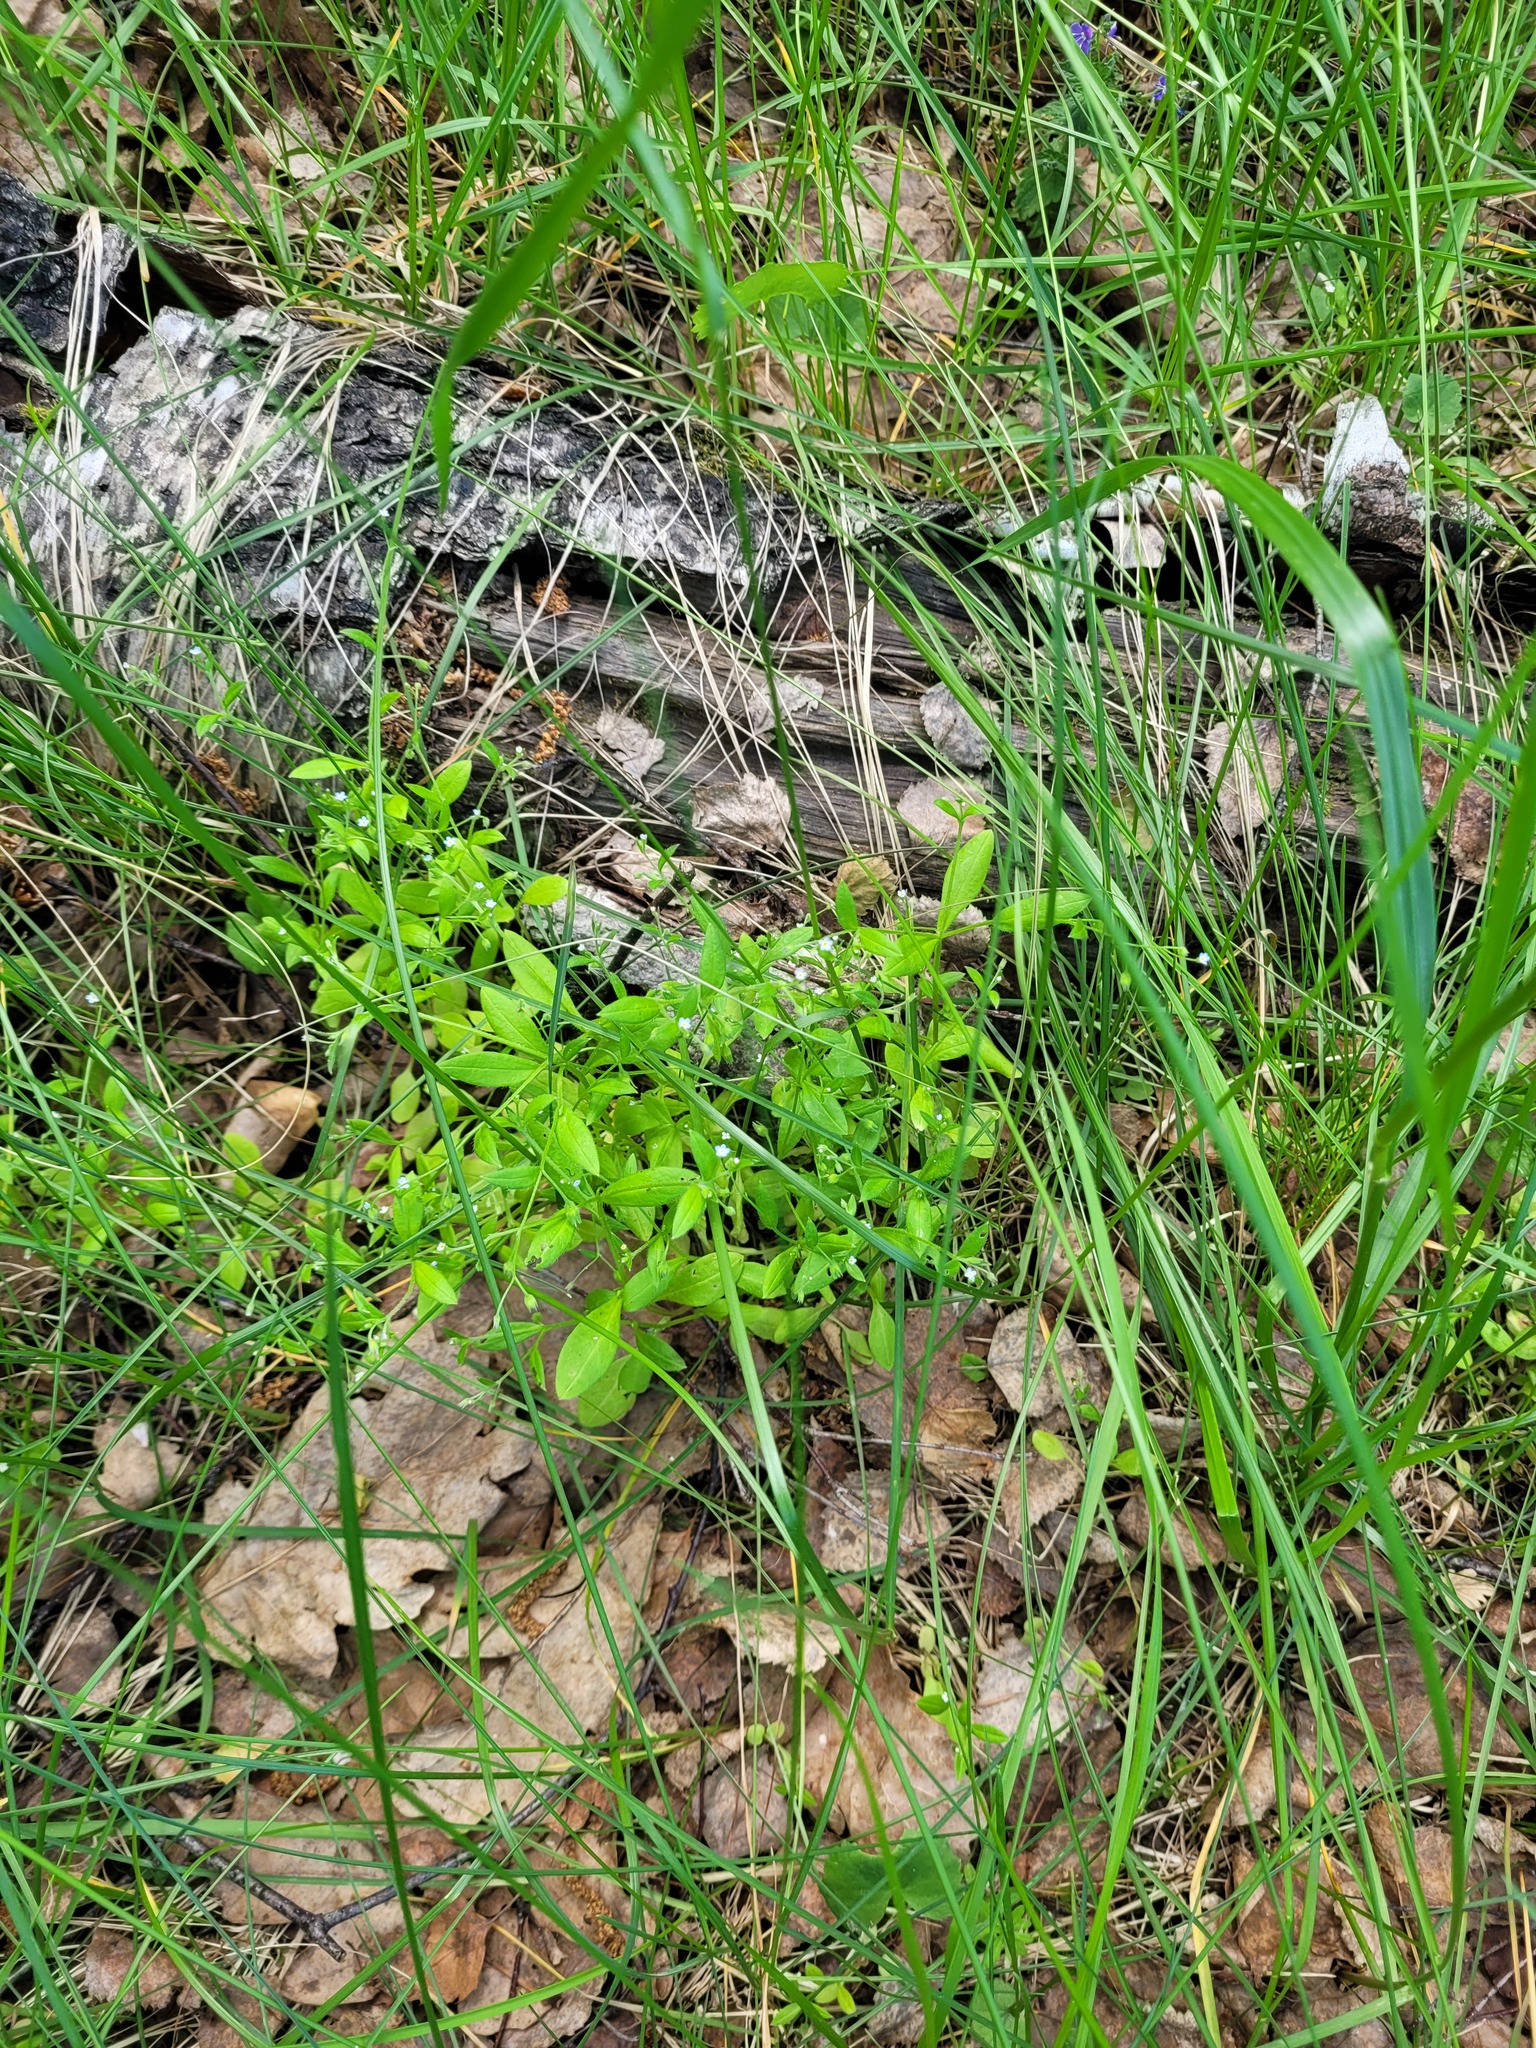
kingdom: Plantae
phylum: Tracheophyta
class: Magnoliopsida
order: Boraginales
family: Boraginaceae
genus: Myosotis
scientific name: Myosotis sparsiflora
